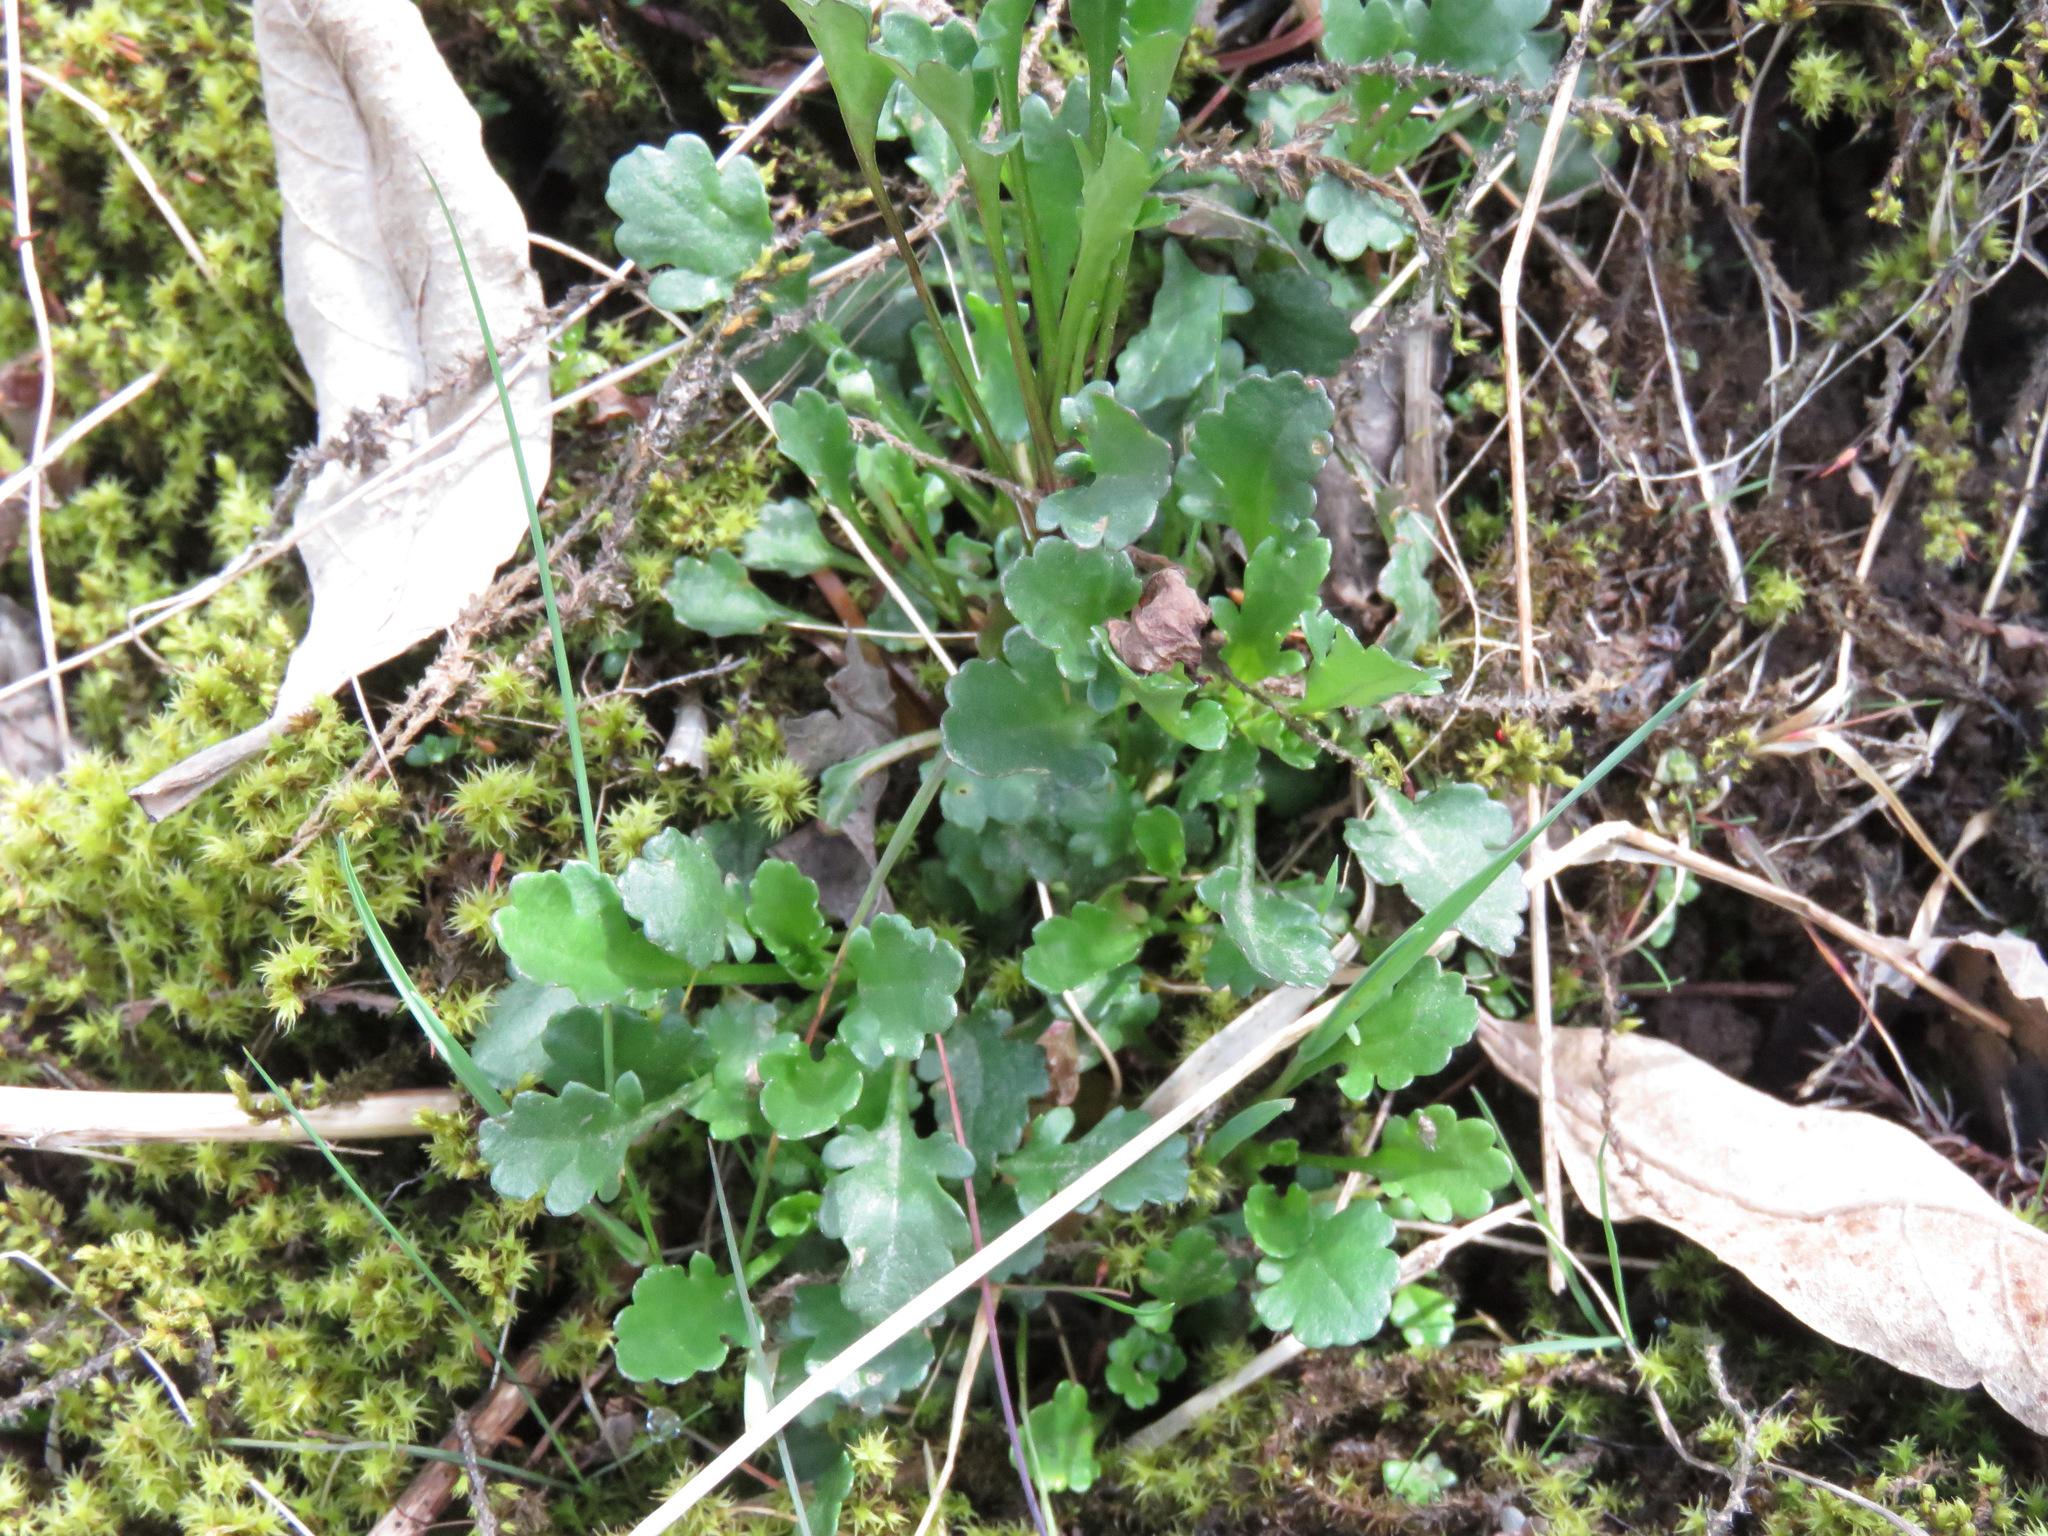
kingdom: Plantae
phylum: Tracheophyta
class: Magnoliopsida
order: Asterales
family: Asteraceae
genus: Leucanthemum
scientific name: Leucanthemum vulgare
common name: Oxeye daisy
